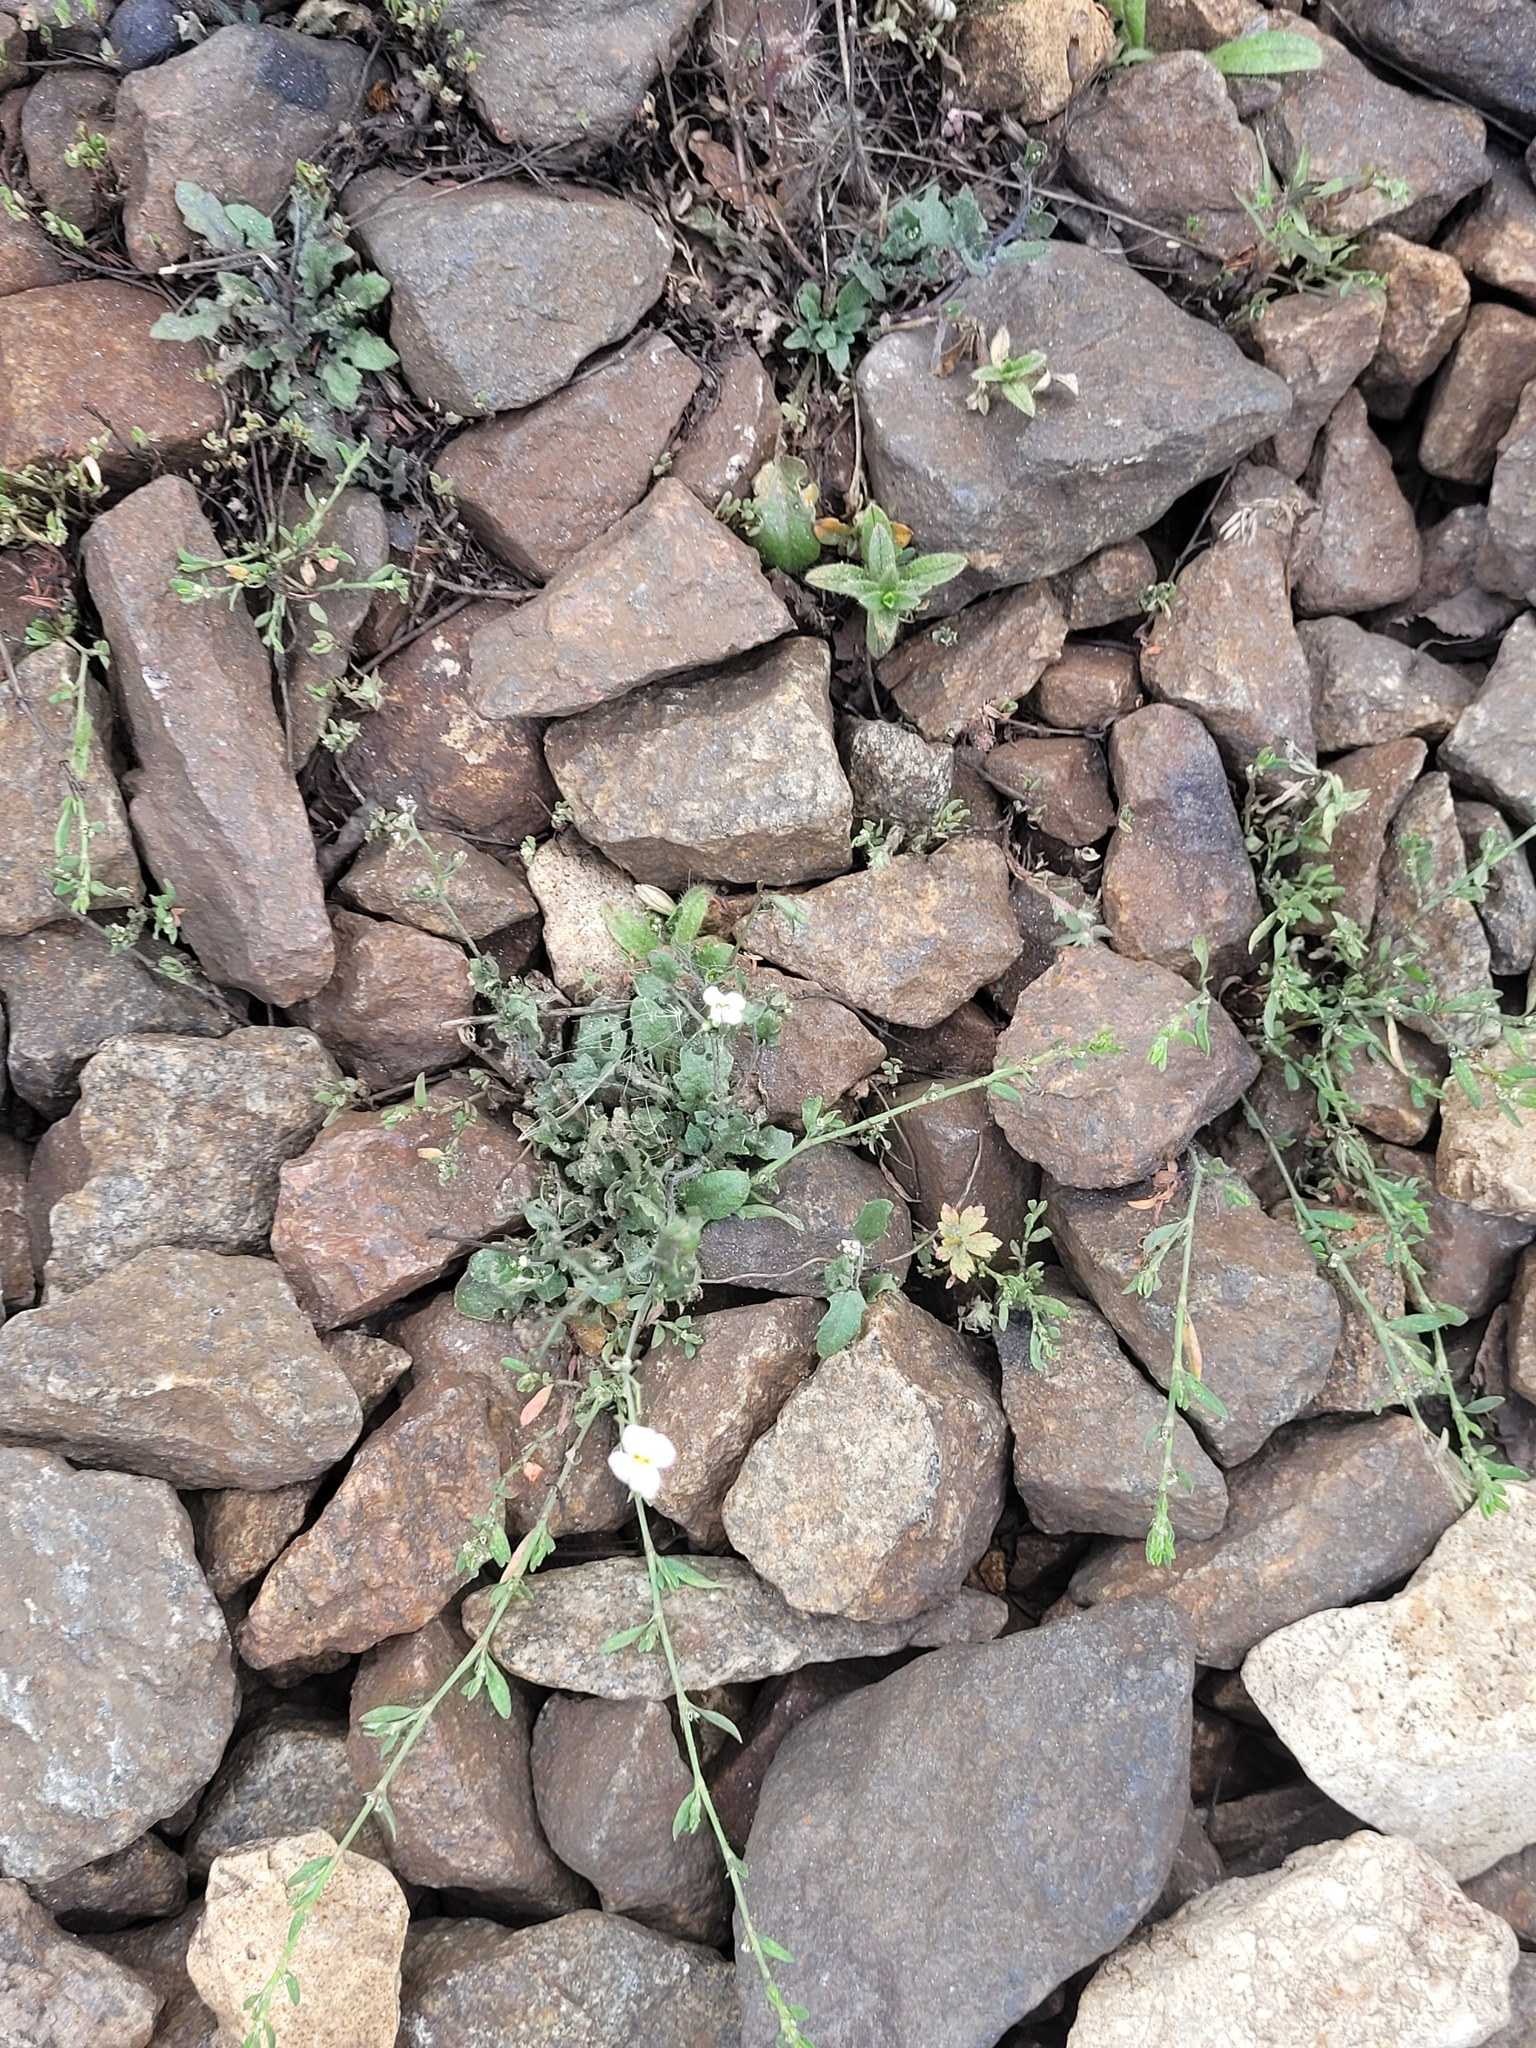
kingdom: Plantae
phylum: Tracheophyta
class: Magnoliopsida
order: Brassicales
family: Brassicaceae
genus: Arabidopsis
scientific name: Arabidopsis arenosa
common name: Sand rock-cress
